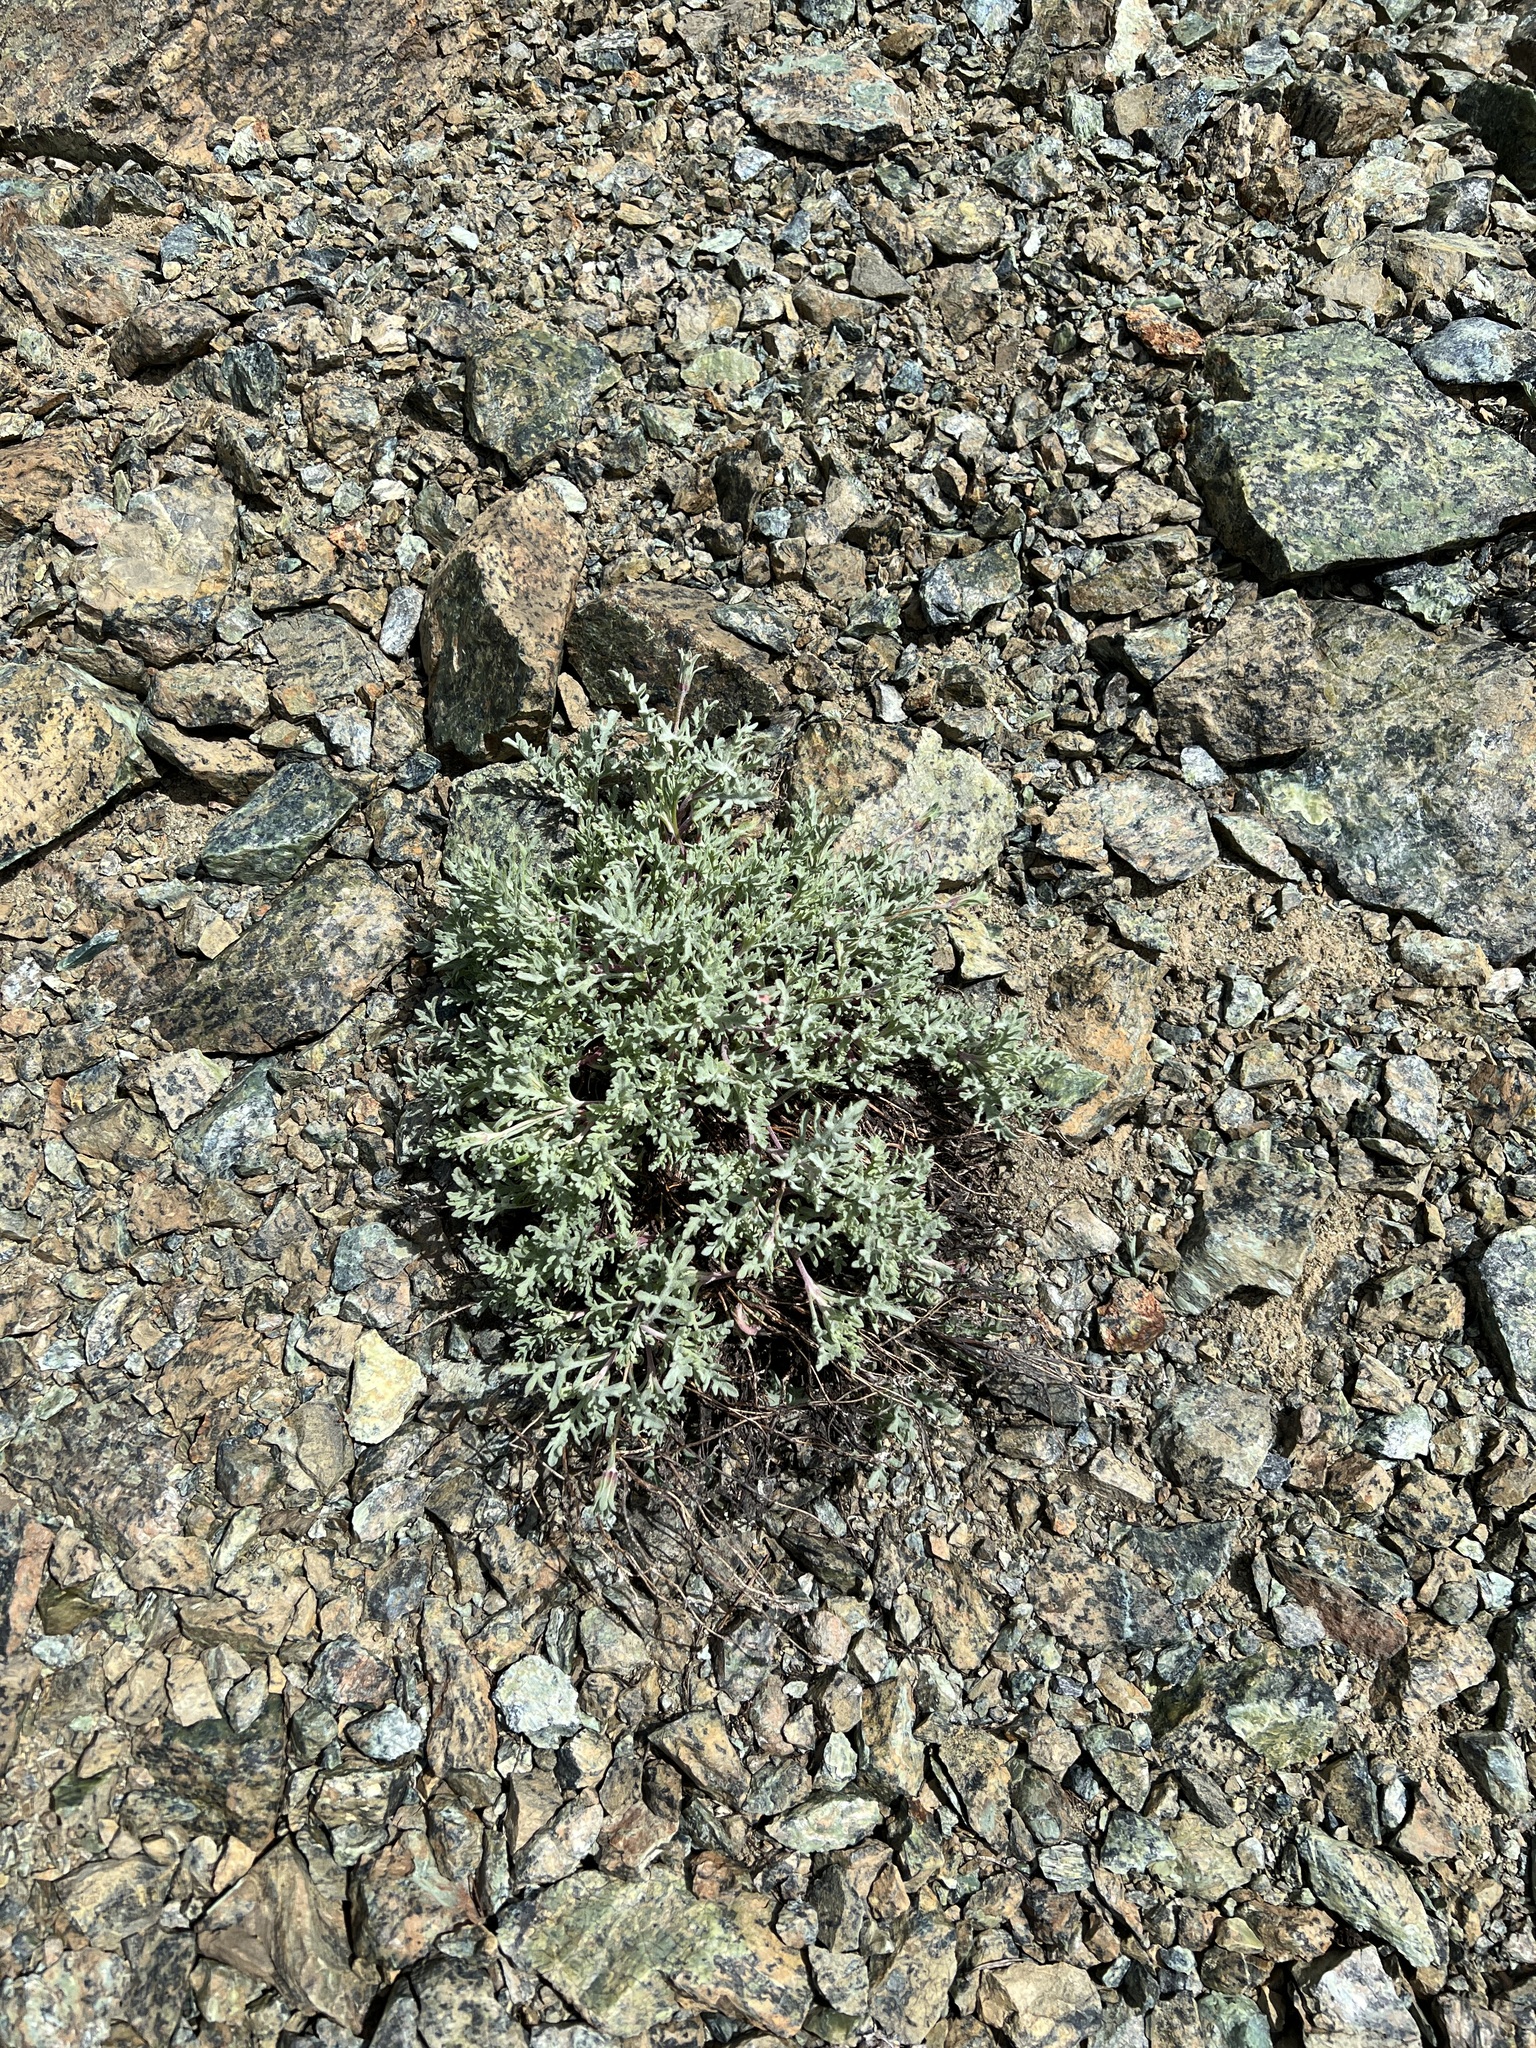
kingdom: Plantae
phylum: Tracheophyta
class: Magnoliopsida
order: Asterales
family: Asteraceae
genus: Chaenactis
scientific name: Chaenactis thompsonii
